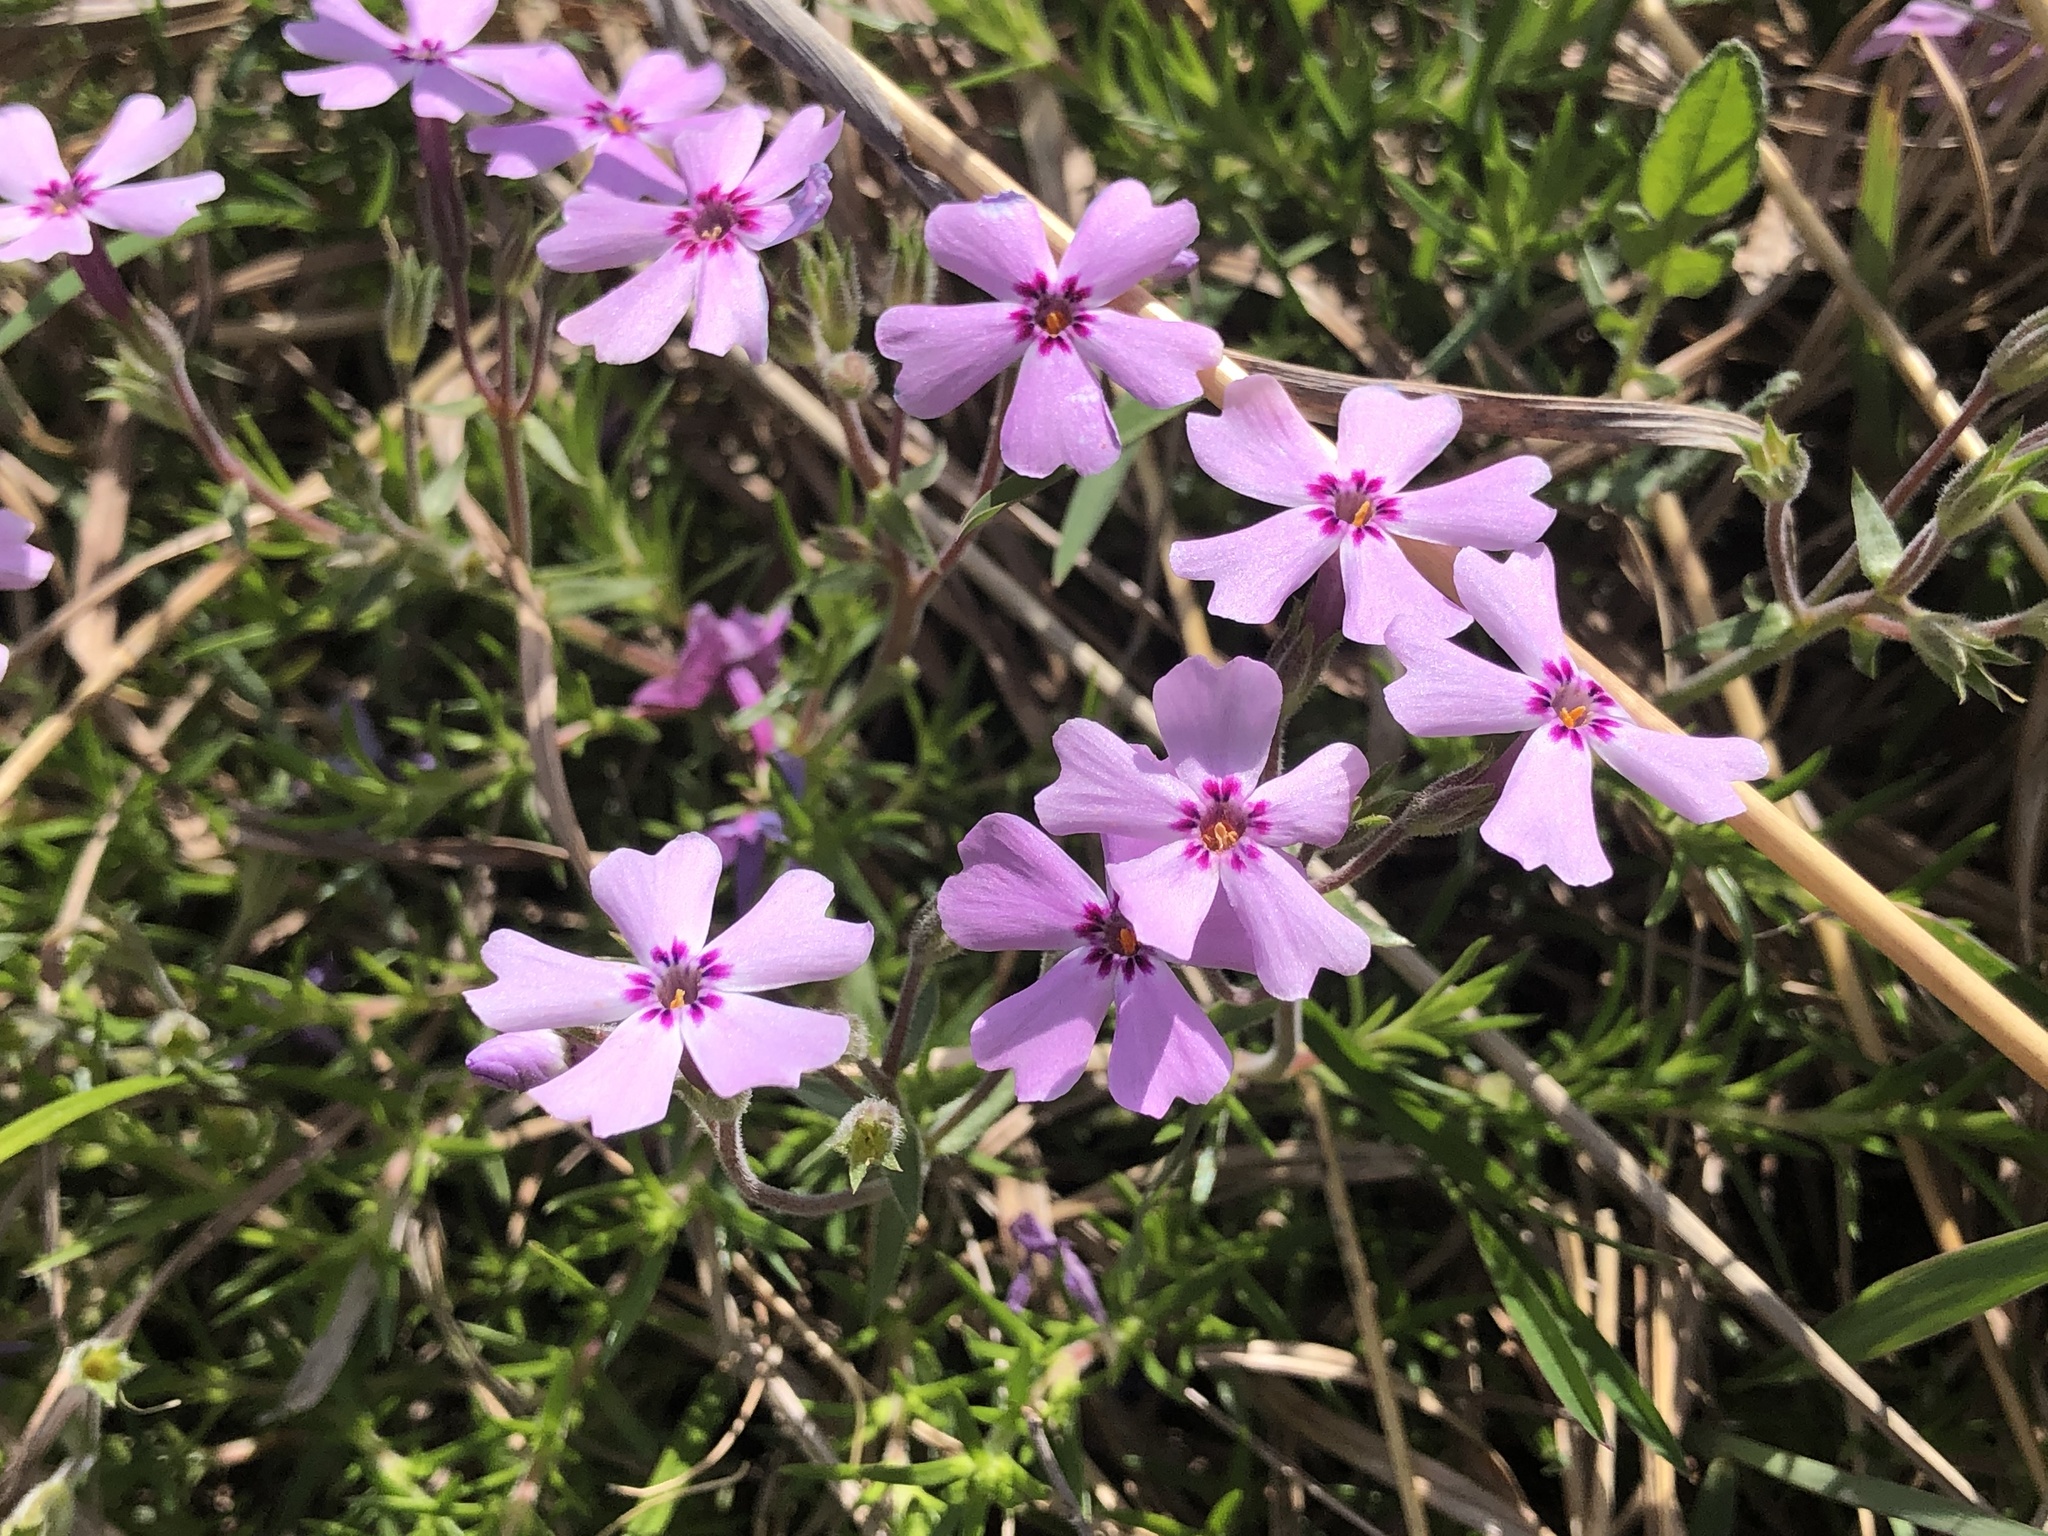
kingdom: Plantae
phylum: Tracheophyta
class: Magnoliopsida
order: Ericales
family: Polemoniaceae
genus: Phlox
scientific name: Phlox subulata
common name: Moss phlox
